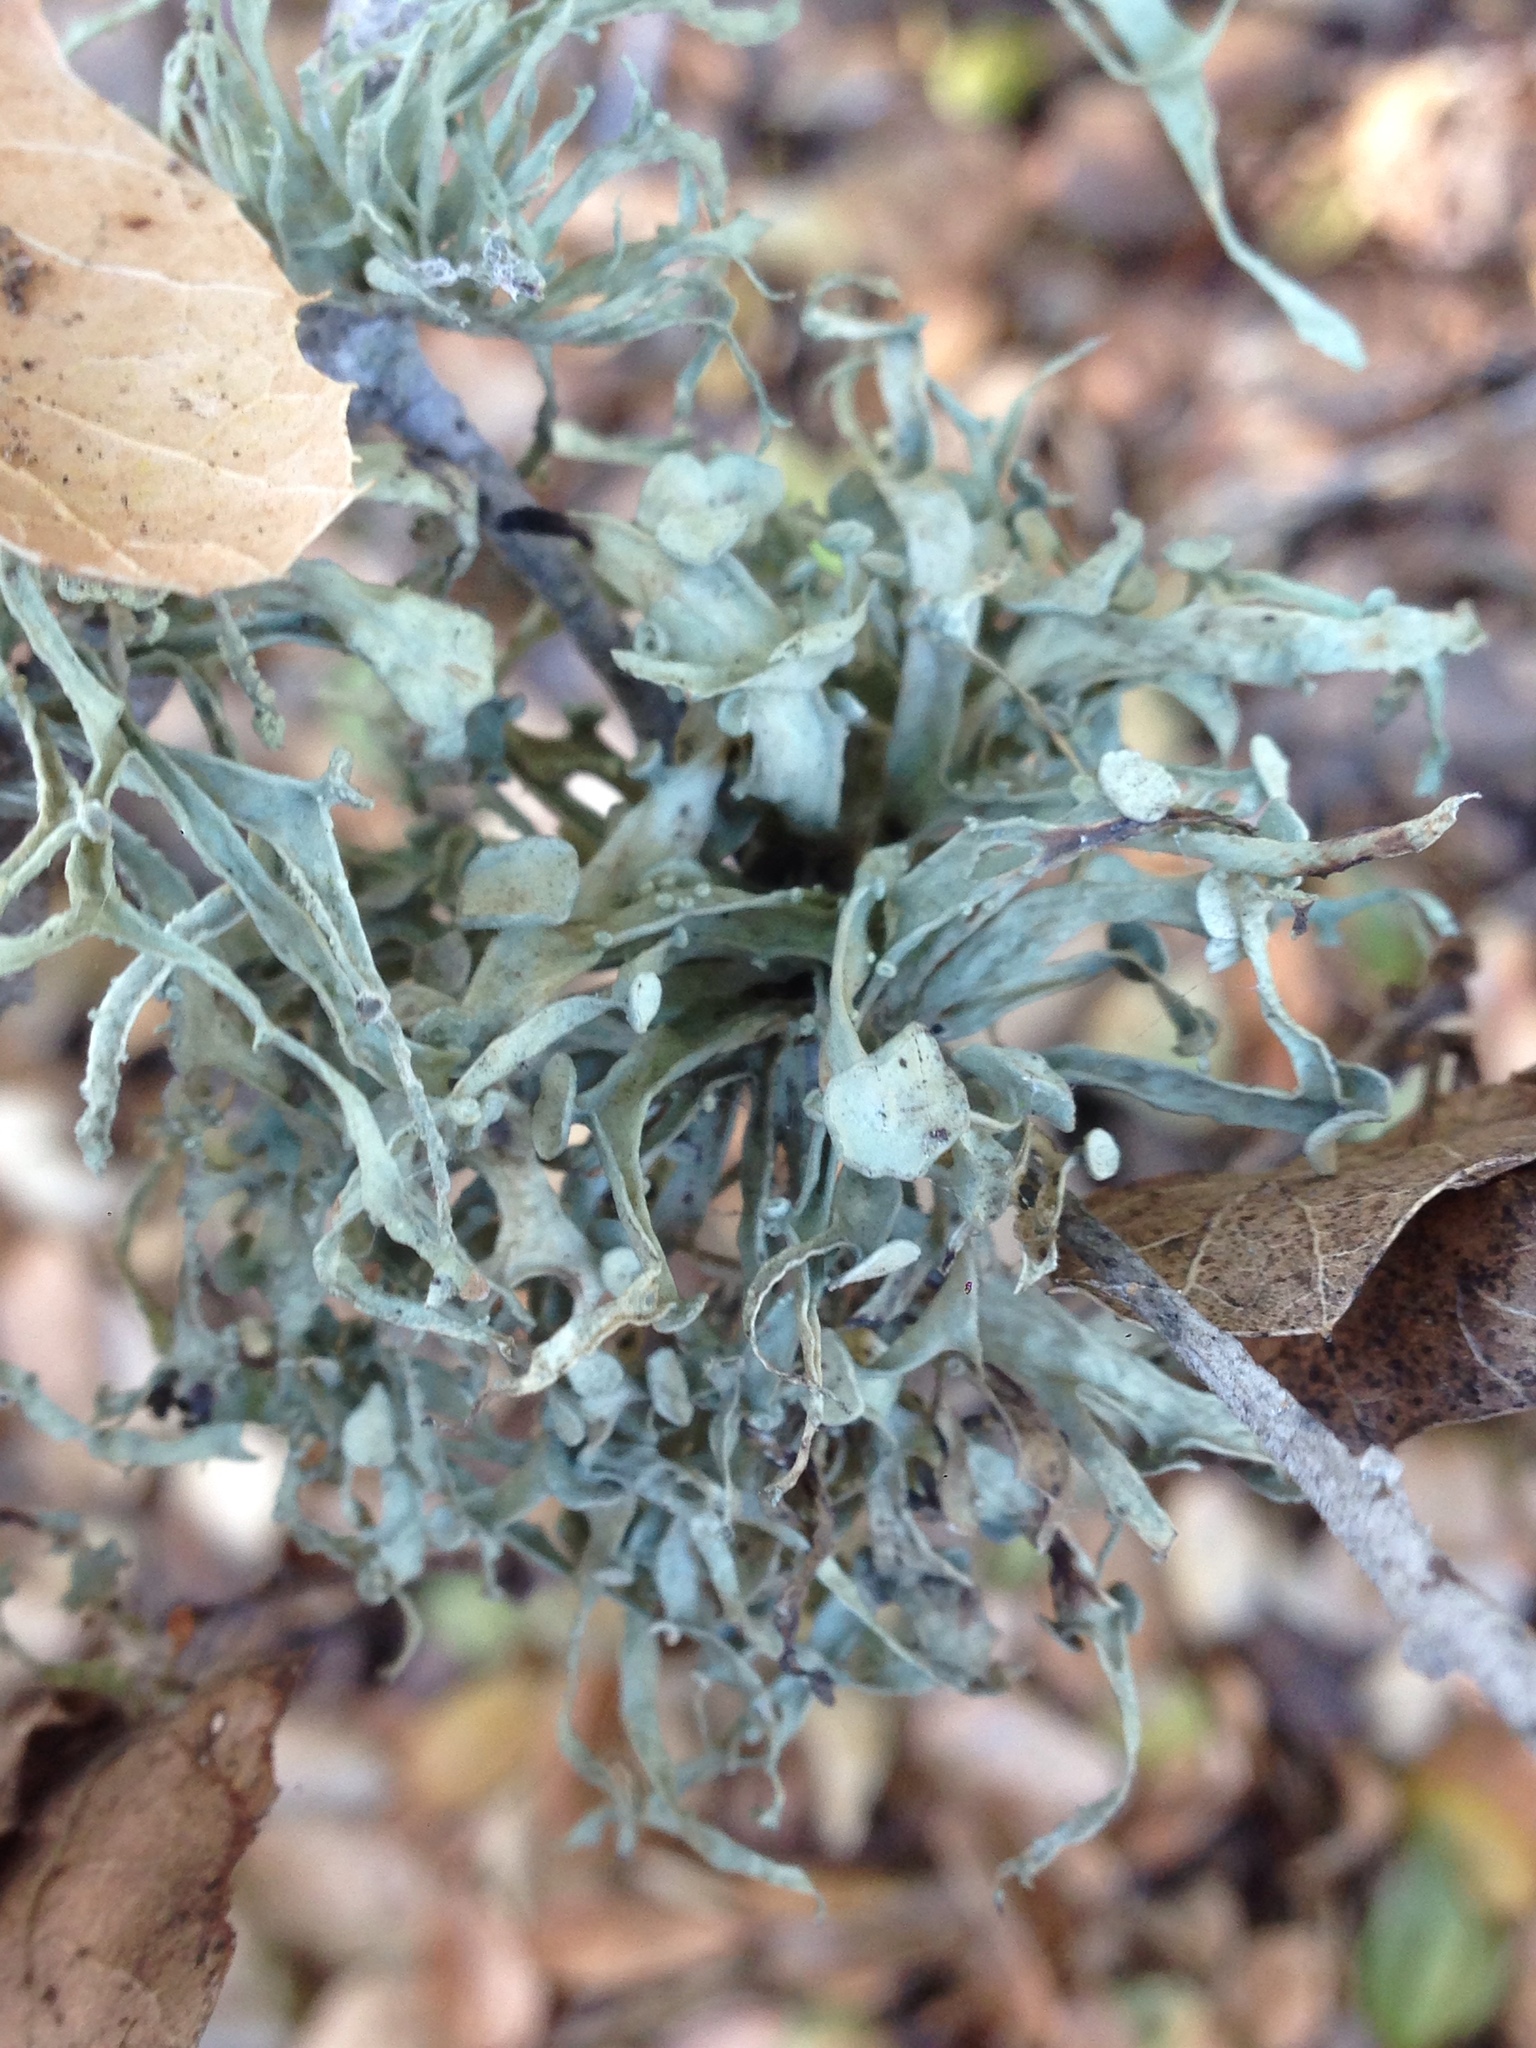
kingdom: Fungi
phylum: Ascomycota
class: Lecanoromycetes
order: Lecanorales
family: Ramalinaceae
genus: Ramalina
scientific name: Ramalina leptocarpha
